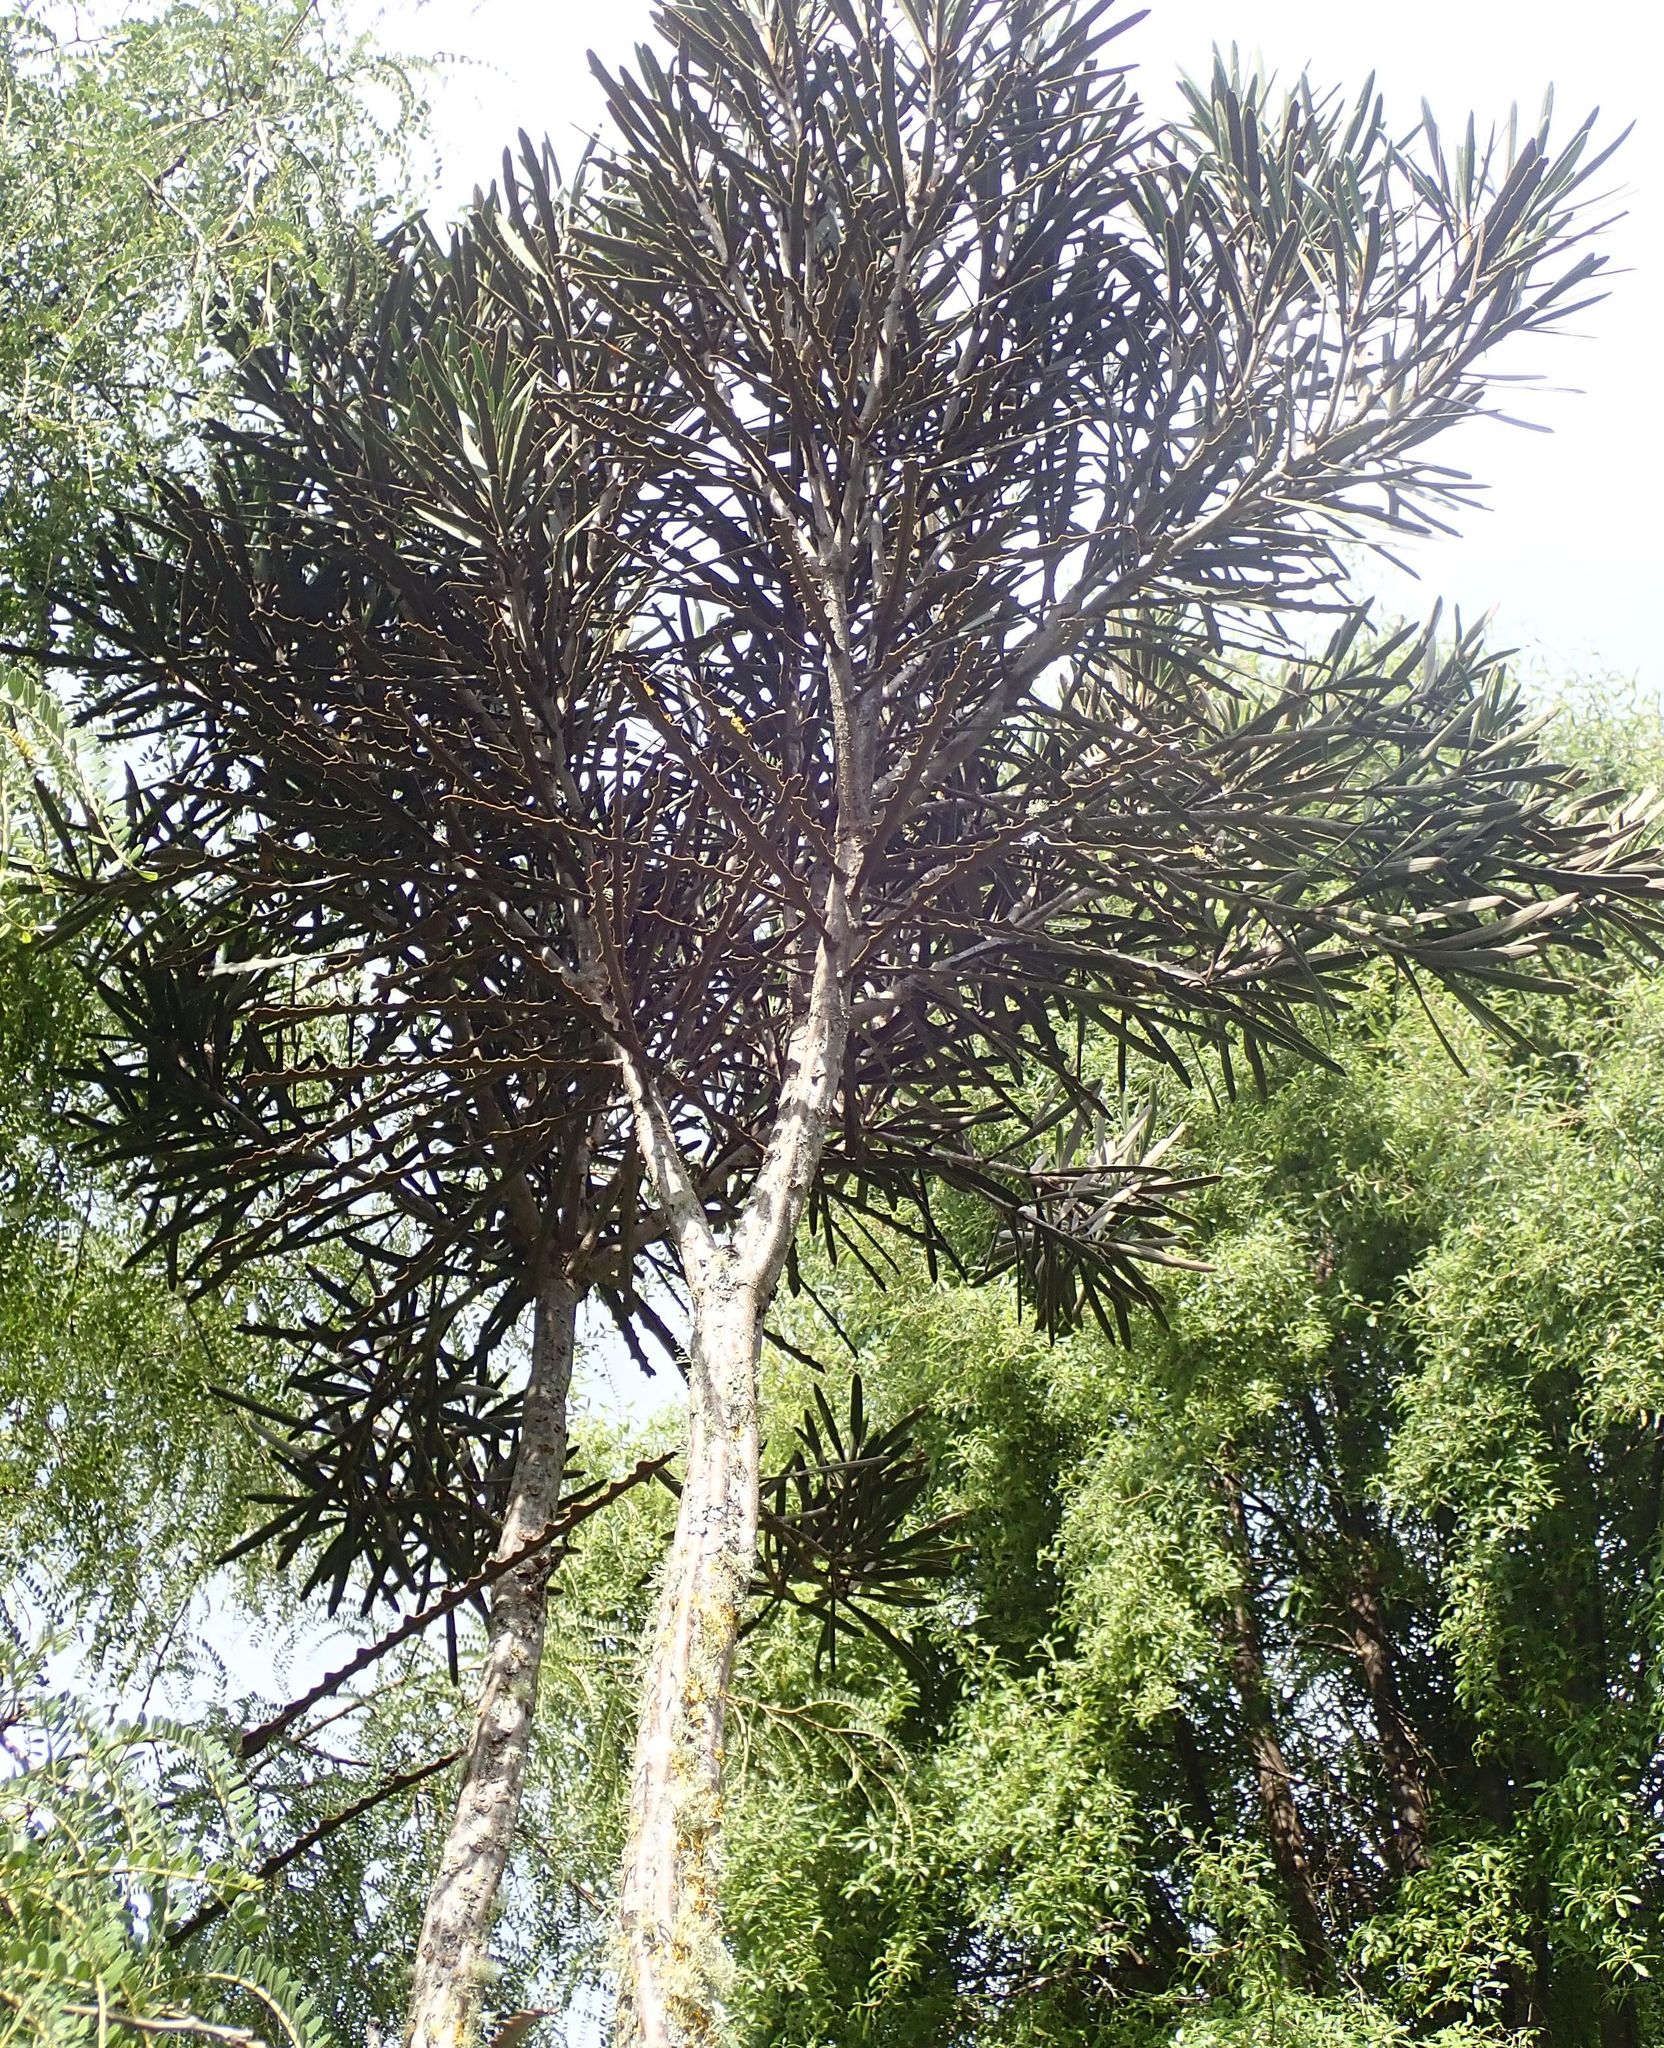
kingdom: Plantae
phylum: Tracheophyta
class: Magnoliopsida
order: Apiales
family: Araliaceae
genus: Pseudopanax
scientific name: Pseudopanax ferox
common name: Fierce lancewood
